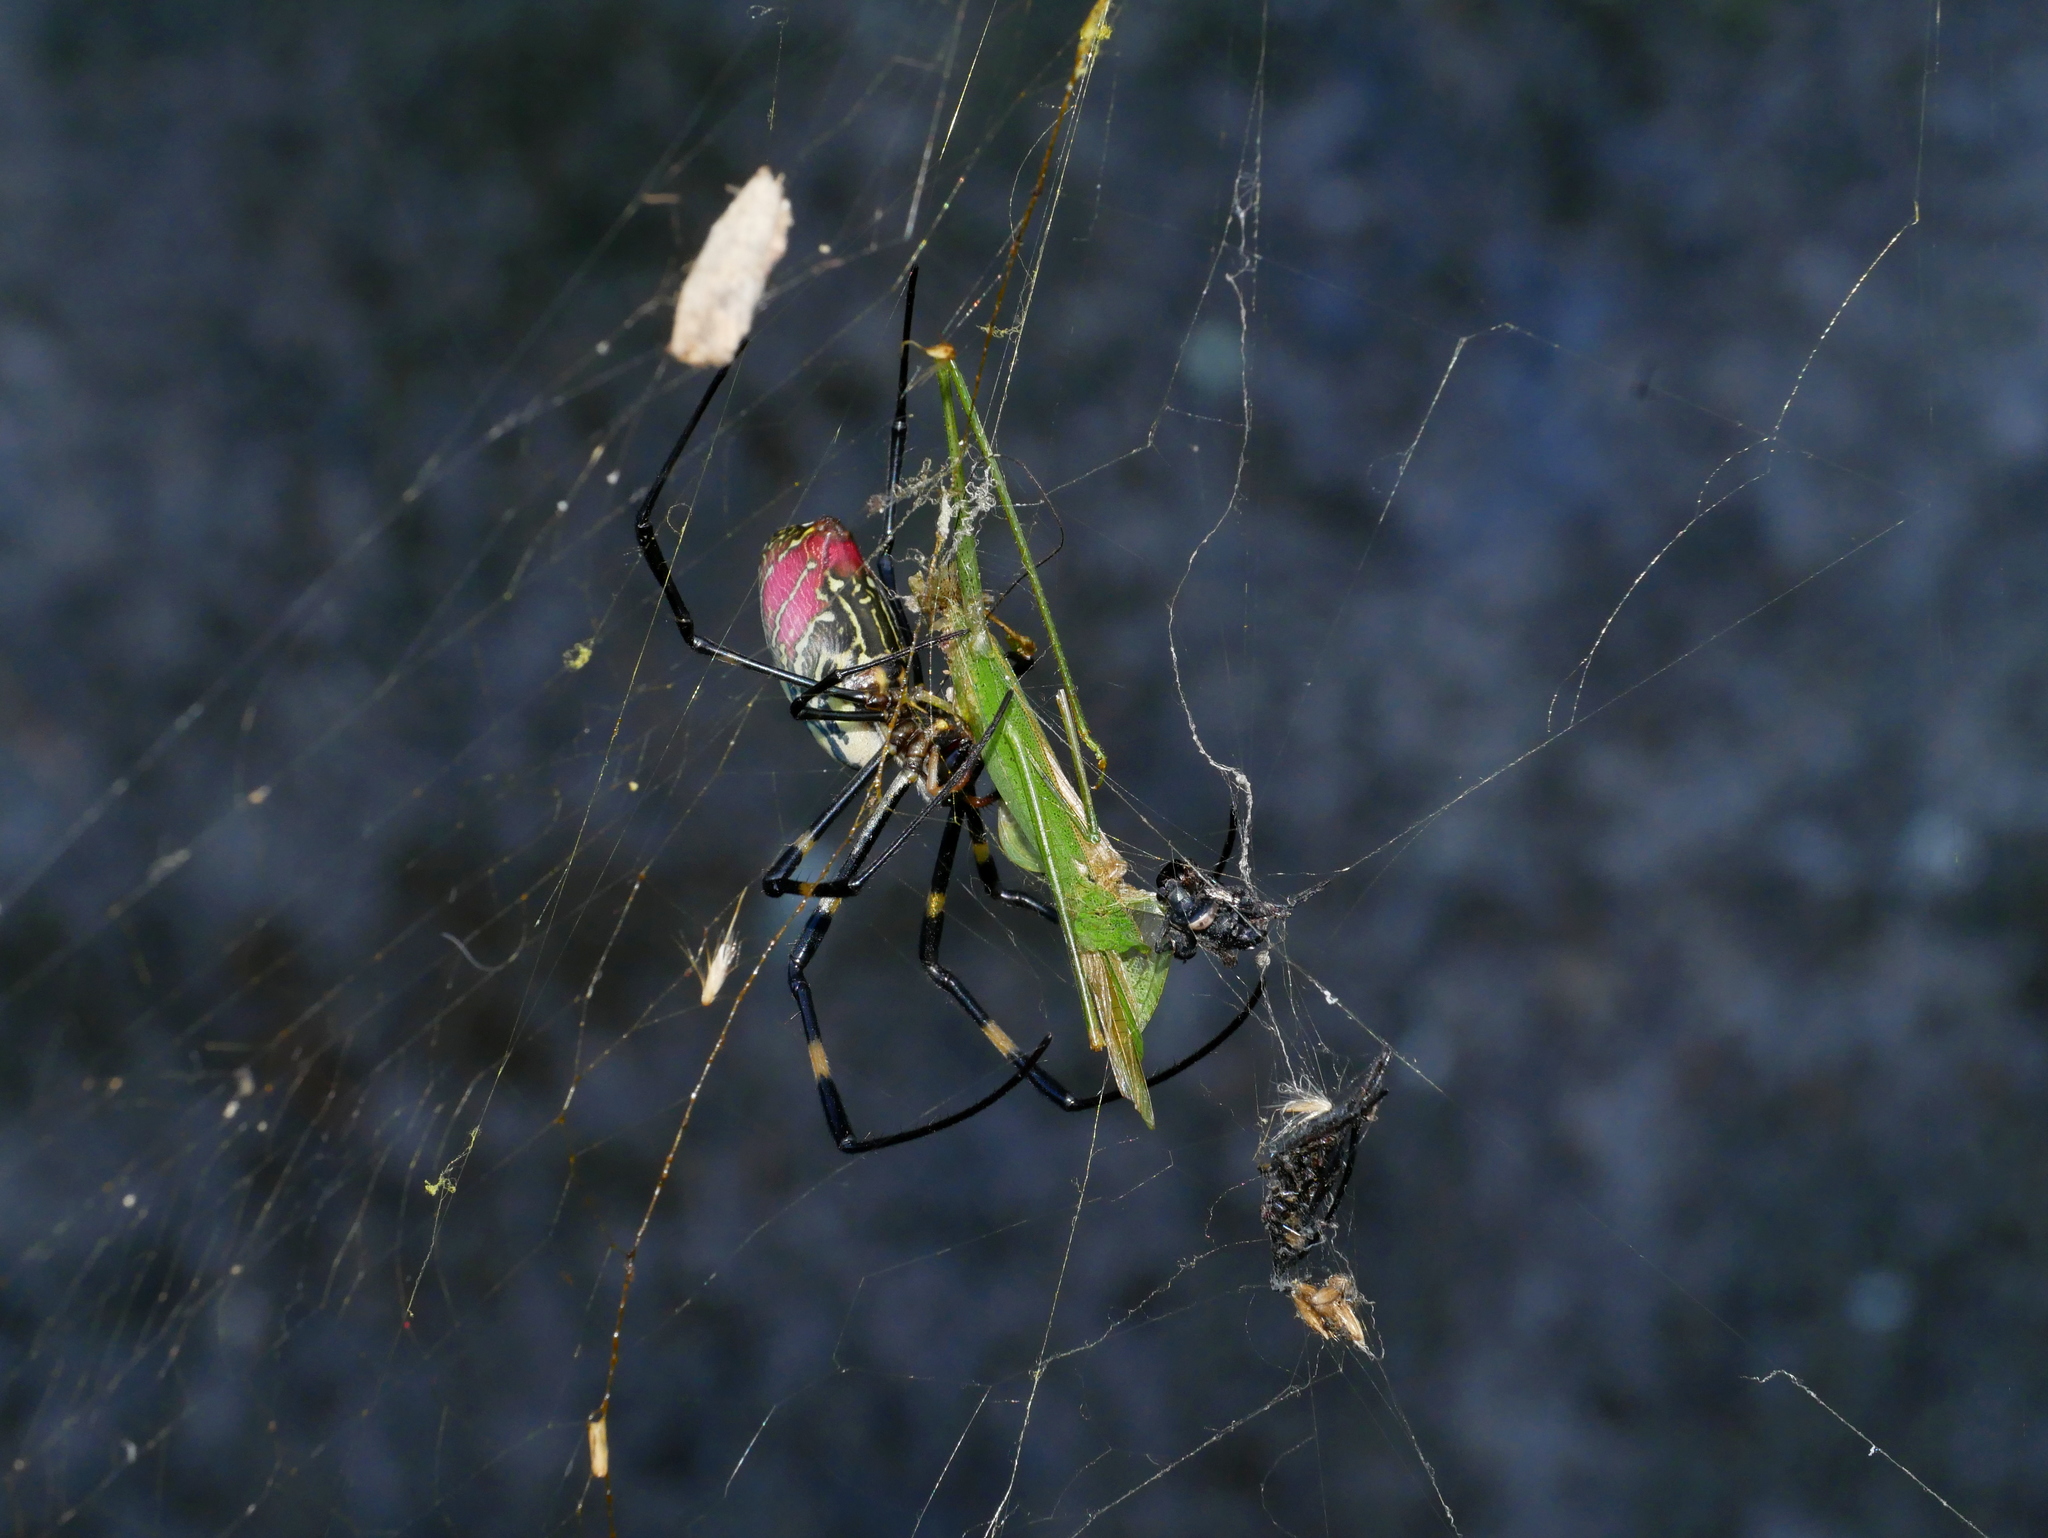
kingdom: Animalia
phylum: Arthropoda
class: Arachnida
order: Araneae
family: Araneidae
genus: Trichonephila
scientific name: Trichonephila clavata
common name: Jorō spider
